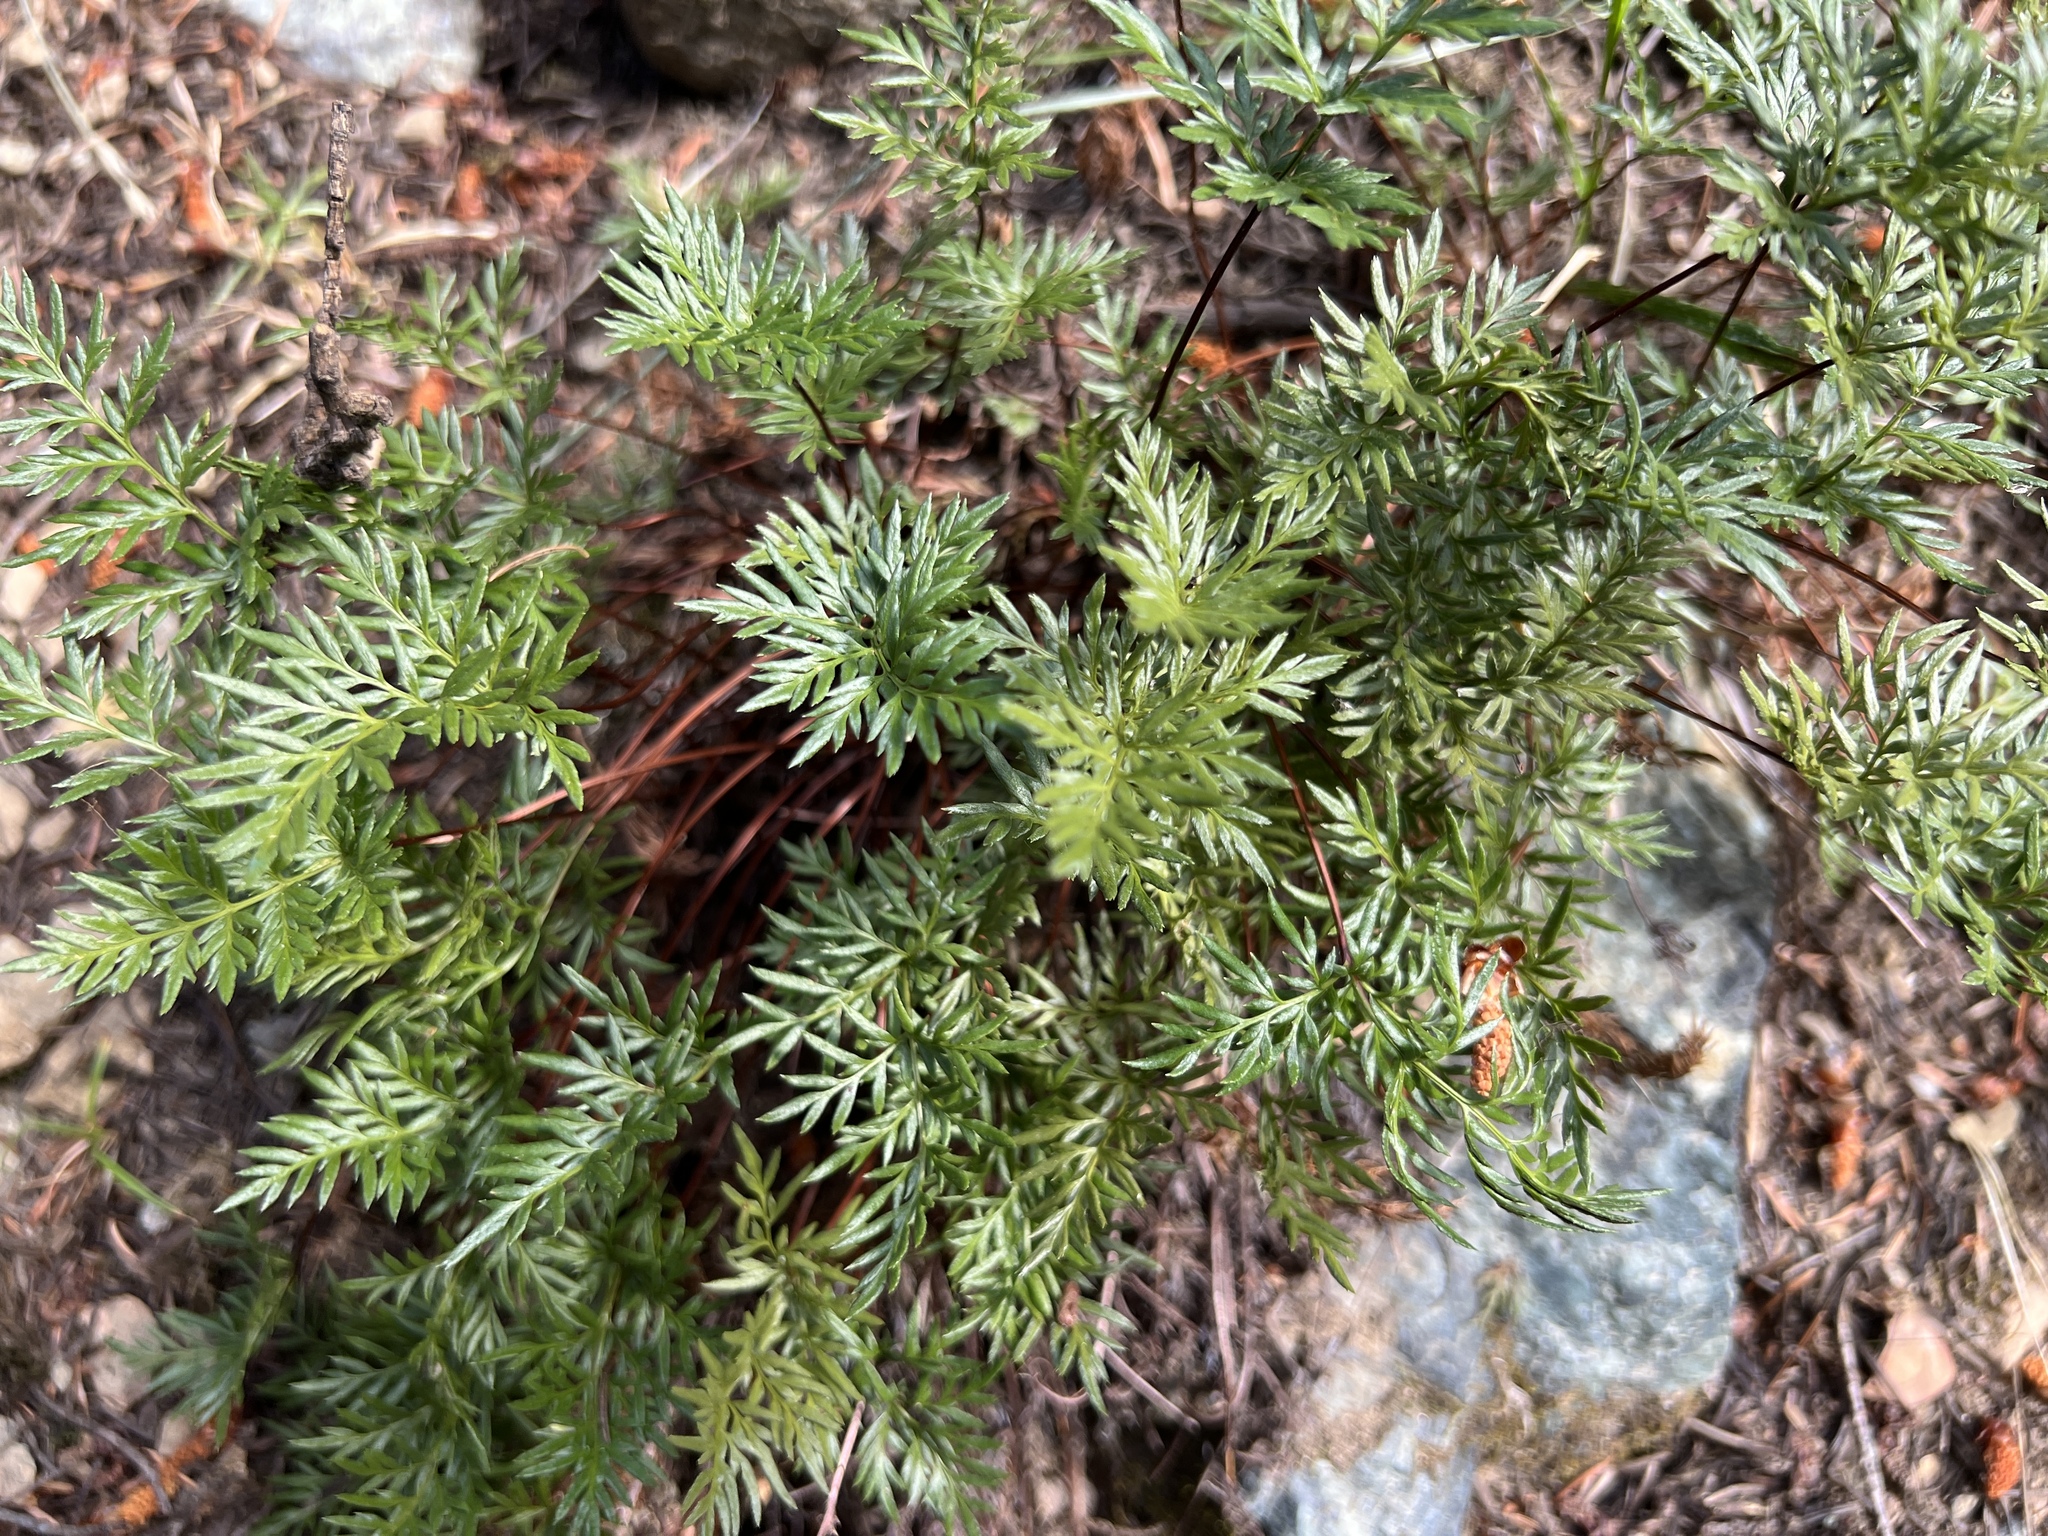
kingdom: Plantae
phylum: Tracheophyta
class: Polypodiopsida
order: Polypodiales
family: Pteridaceae
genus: Aspidotis
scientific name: Aspidotis densa
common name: Indian's dream
